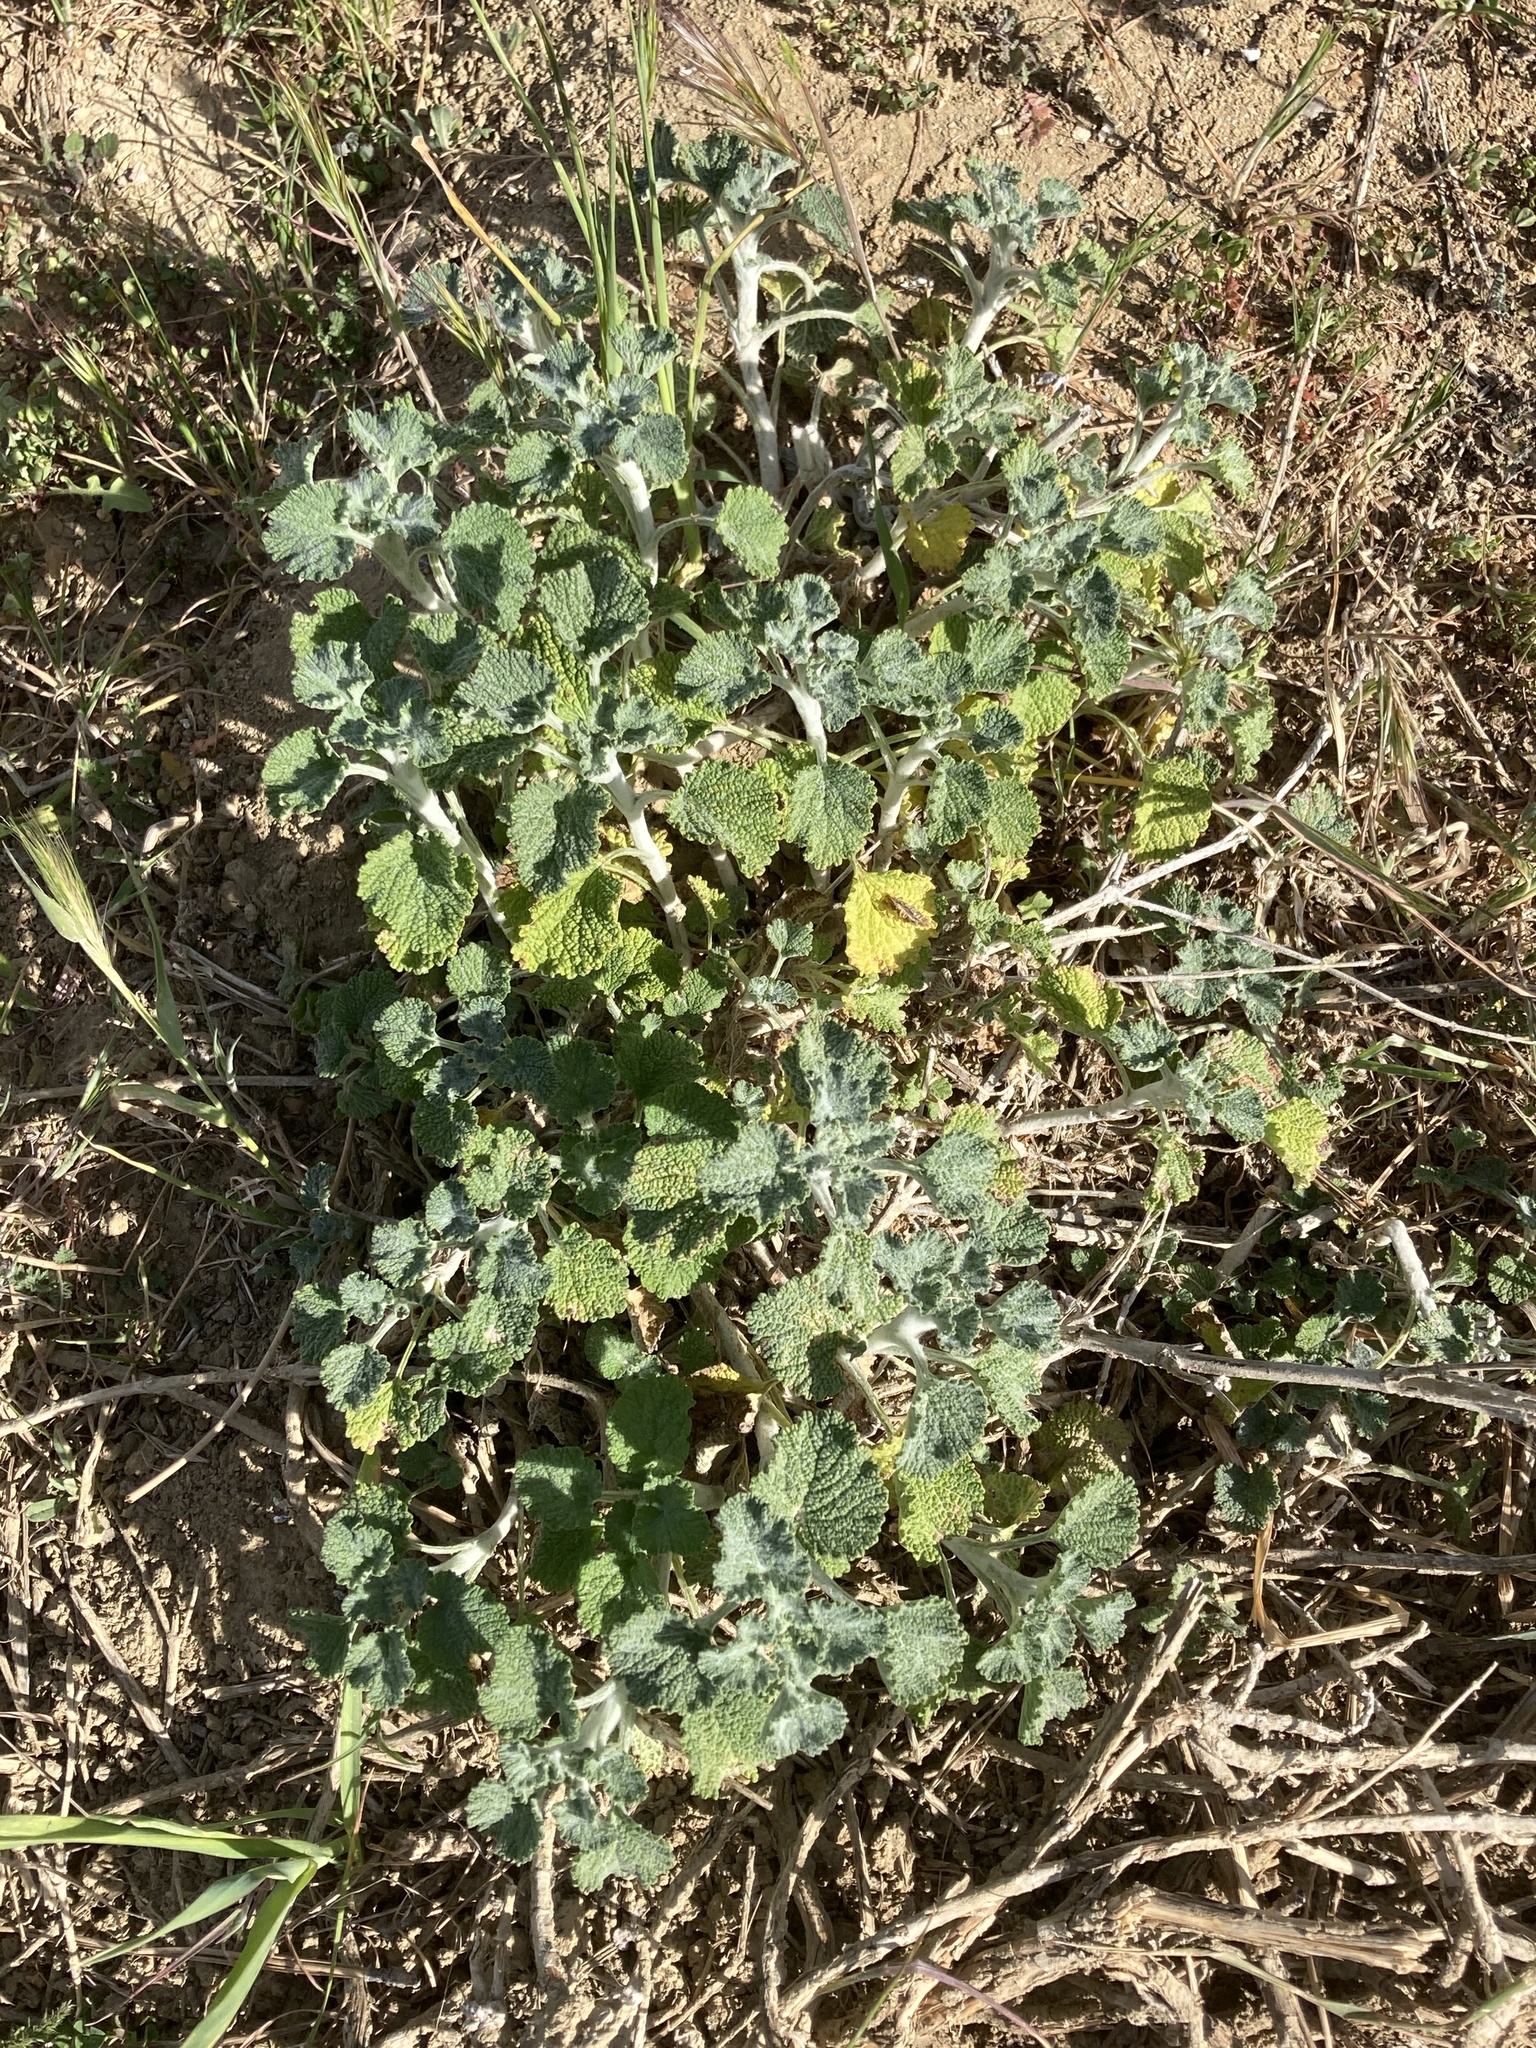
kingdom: Plantae
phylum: Tracheophyta
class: Magnoliopsida
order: Lamiales
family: Lamiaceae
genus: Marrubium
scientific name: Marrubium vulgare
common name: Horehound
